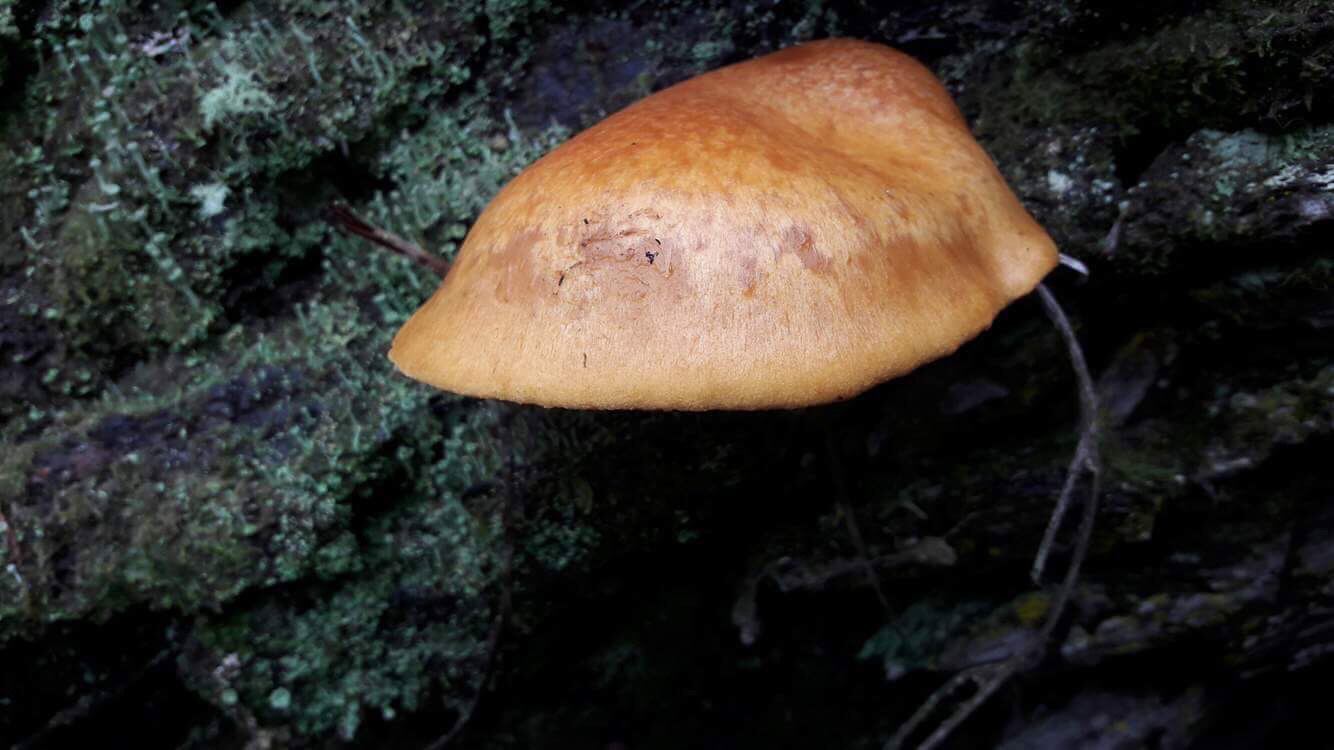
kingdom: Fungi
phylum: Basidiomycota
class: Agaricomycetes
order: Agaricales
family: Hymenogastraceae
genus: Gymnopilus
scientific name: Gymnopilus junonius
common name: Spectacular rustgill
